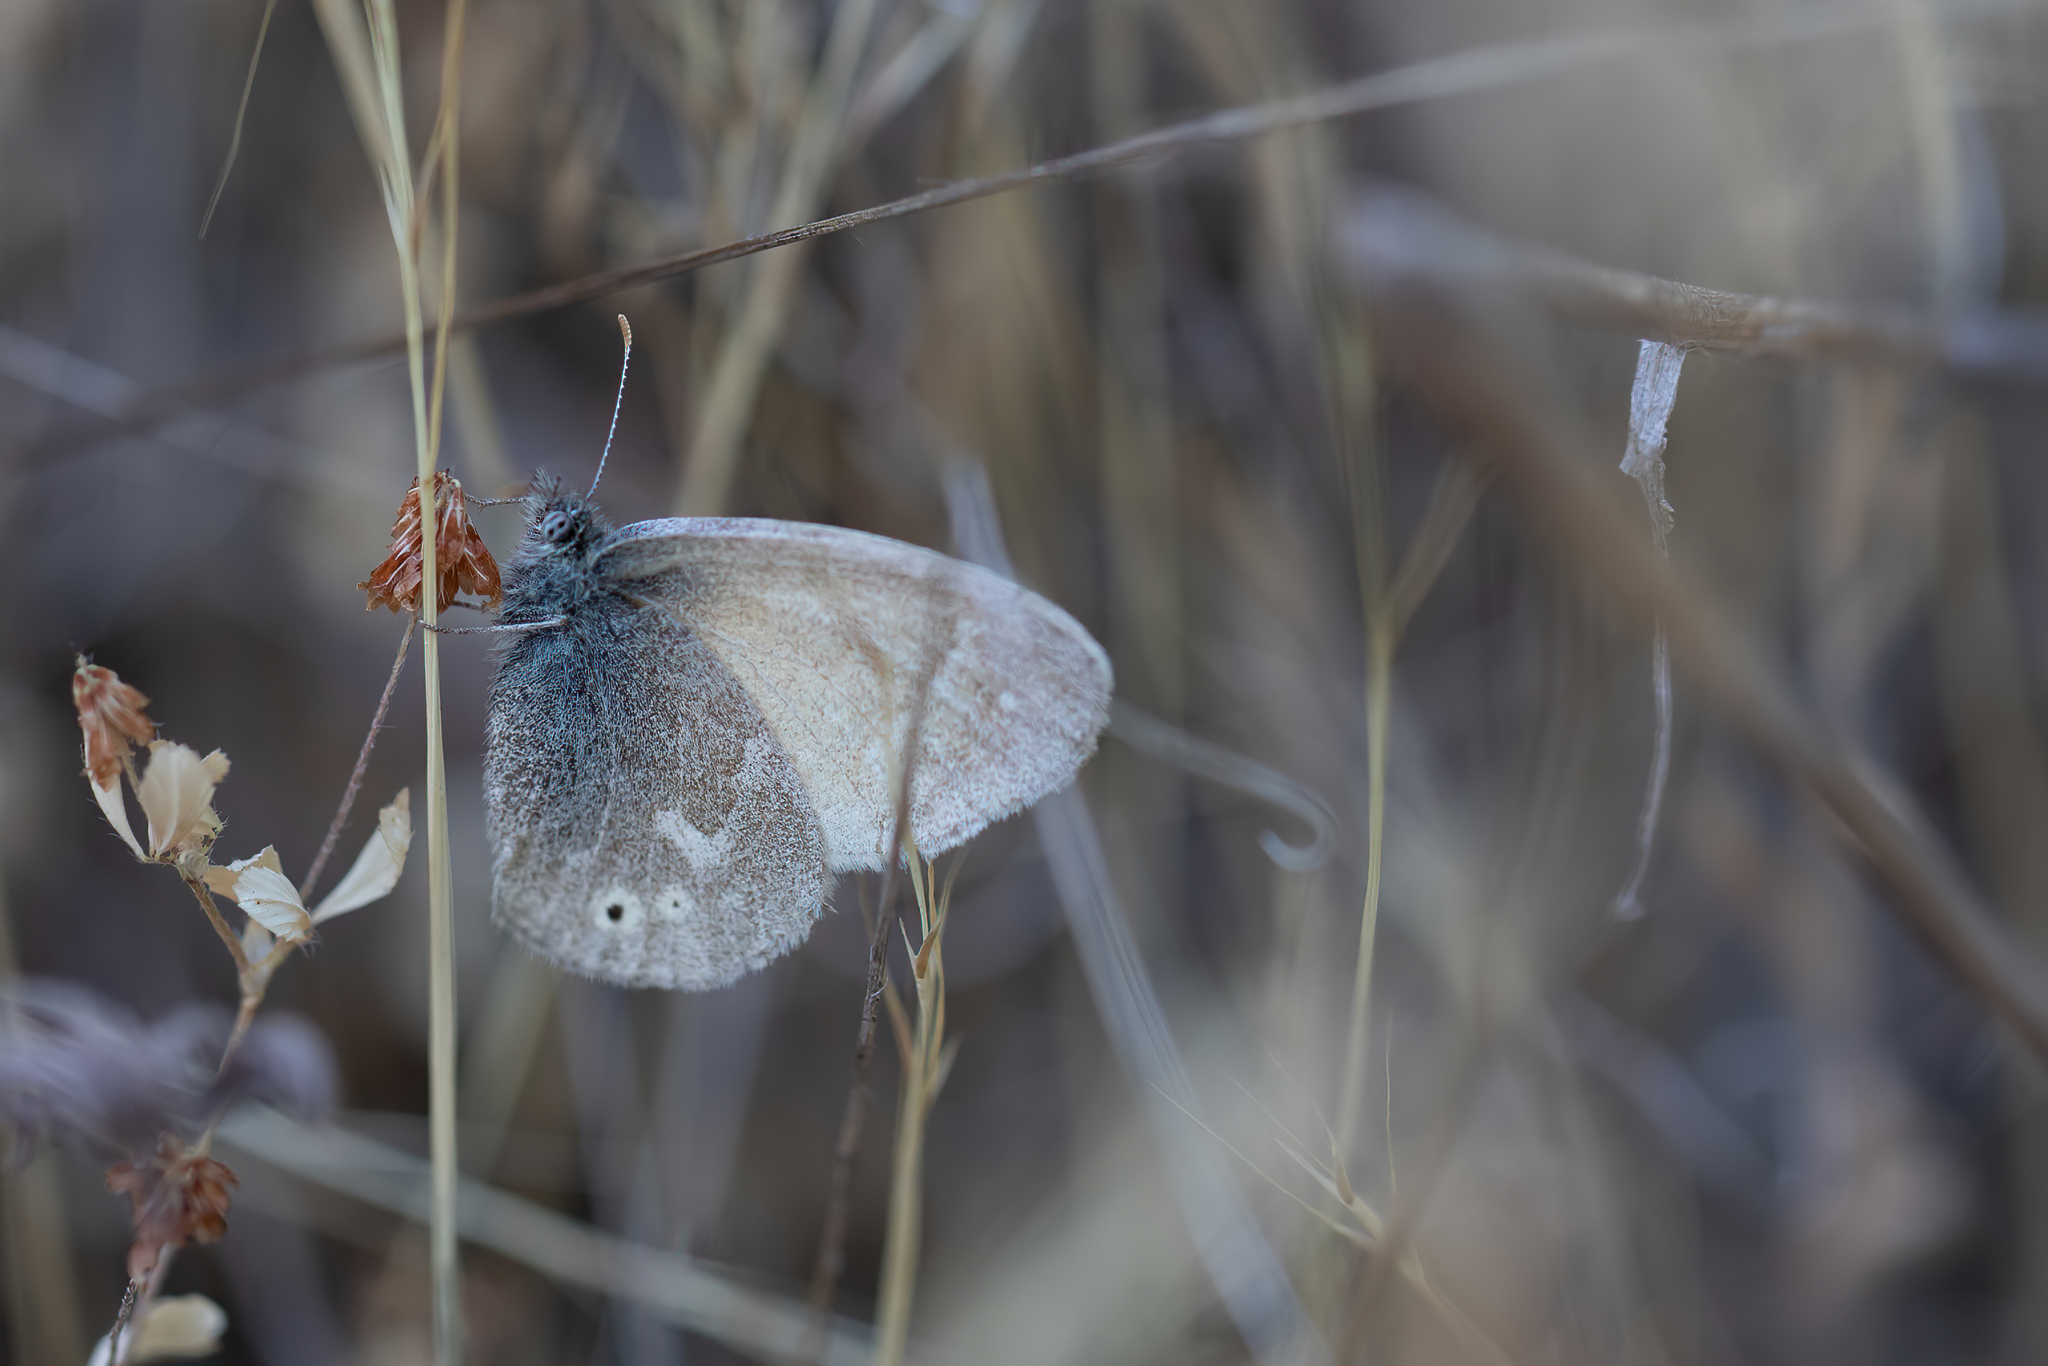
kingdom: Animalia
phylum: Arthropoda
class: Insecta
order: Lepidoptera
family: Nymphalidae
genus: Coenonympha
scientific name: Coenonympha california
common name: Common ringlet
